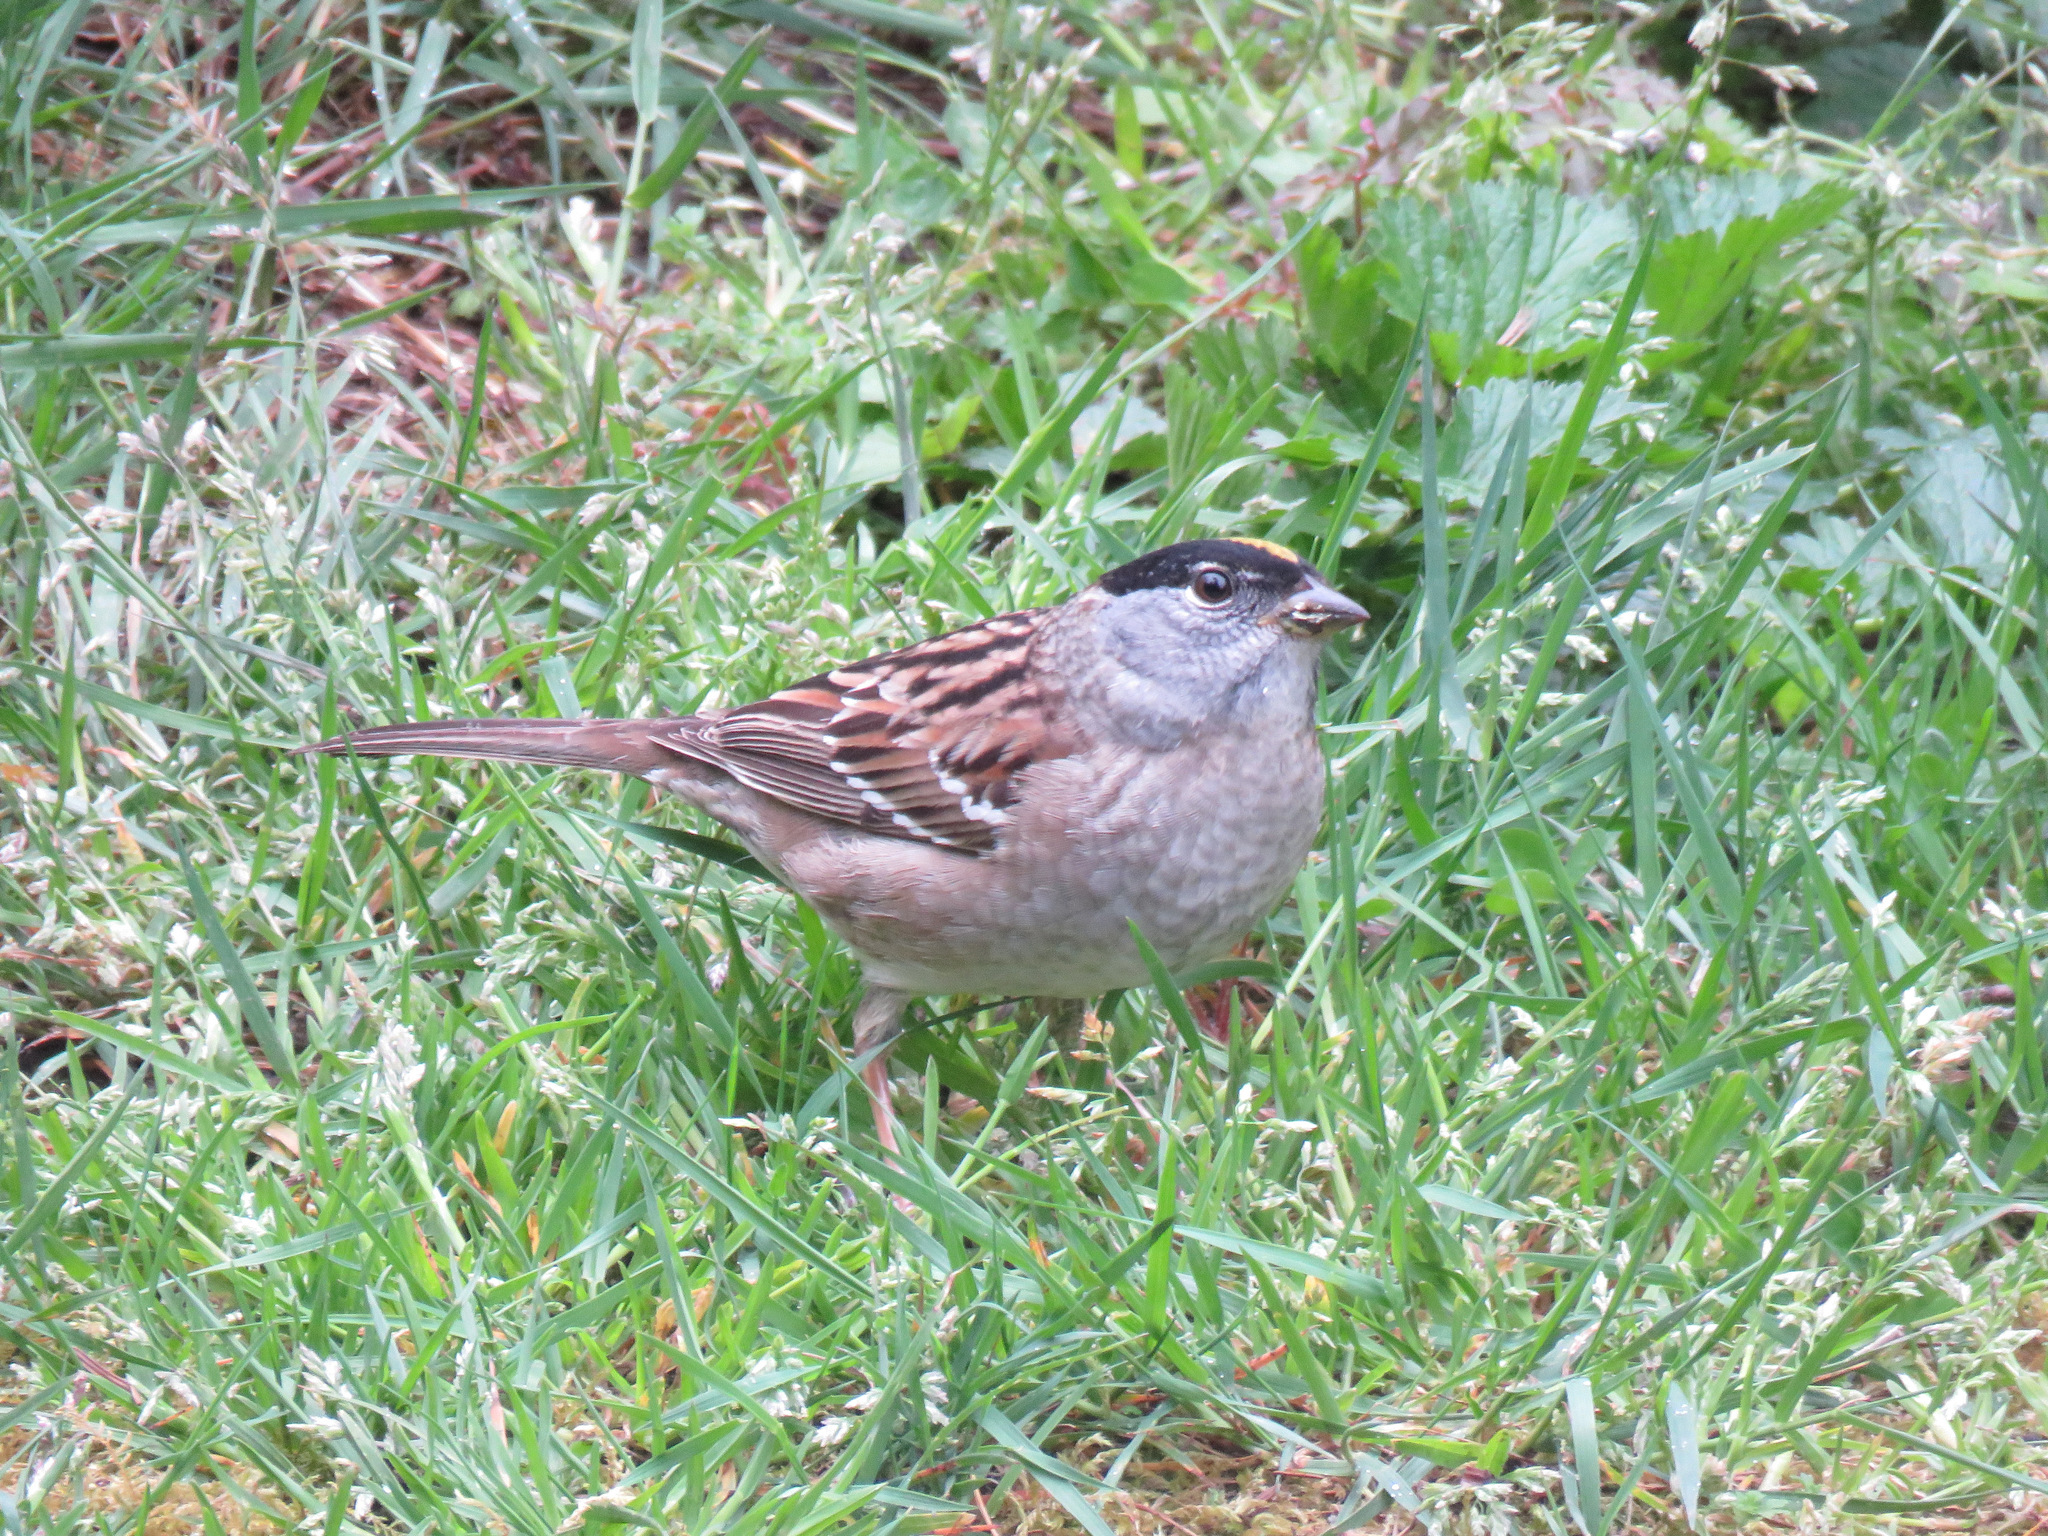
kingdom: Animalia
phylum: Chordata
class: Aves
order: Passeriformes
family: Passerellidae
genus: Zonotrichia
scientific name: Zonotrichia atricapilla
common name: Golden-crowned sparrow
